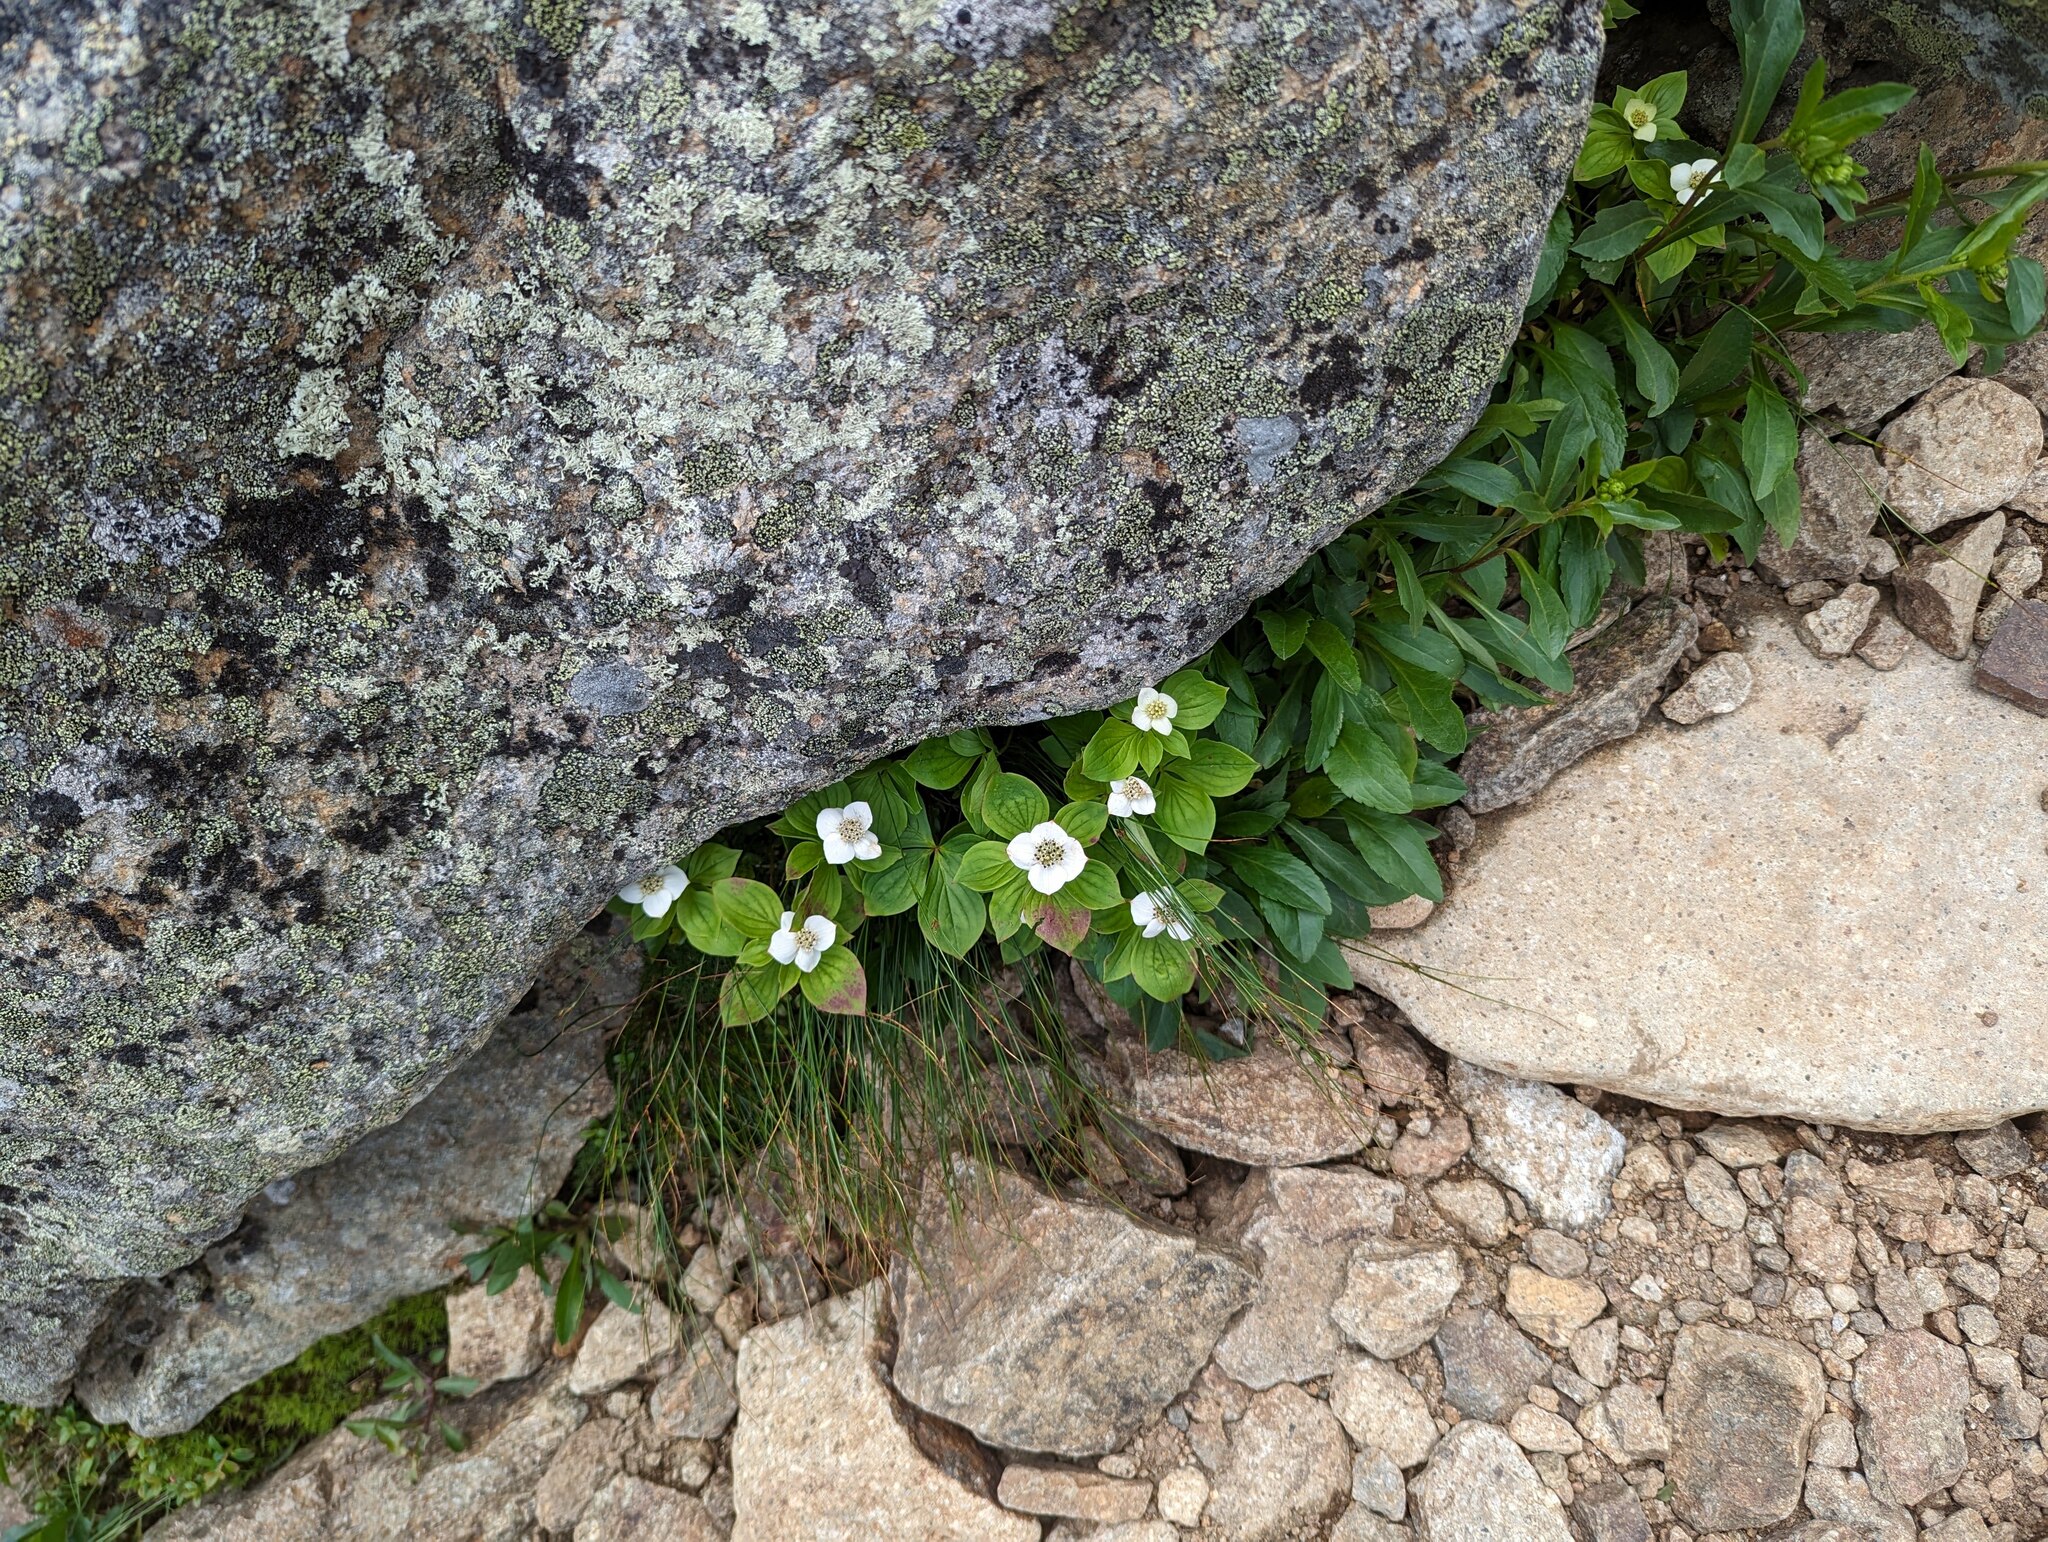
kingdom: Plantae
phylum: Tracheophyta
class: Magnoliopsida
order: Cornales
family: Cornaceae
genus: Cornus
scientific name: Cornus canadensis
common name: Creeping dogwood
